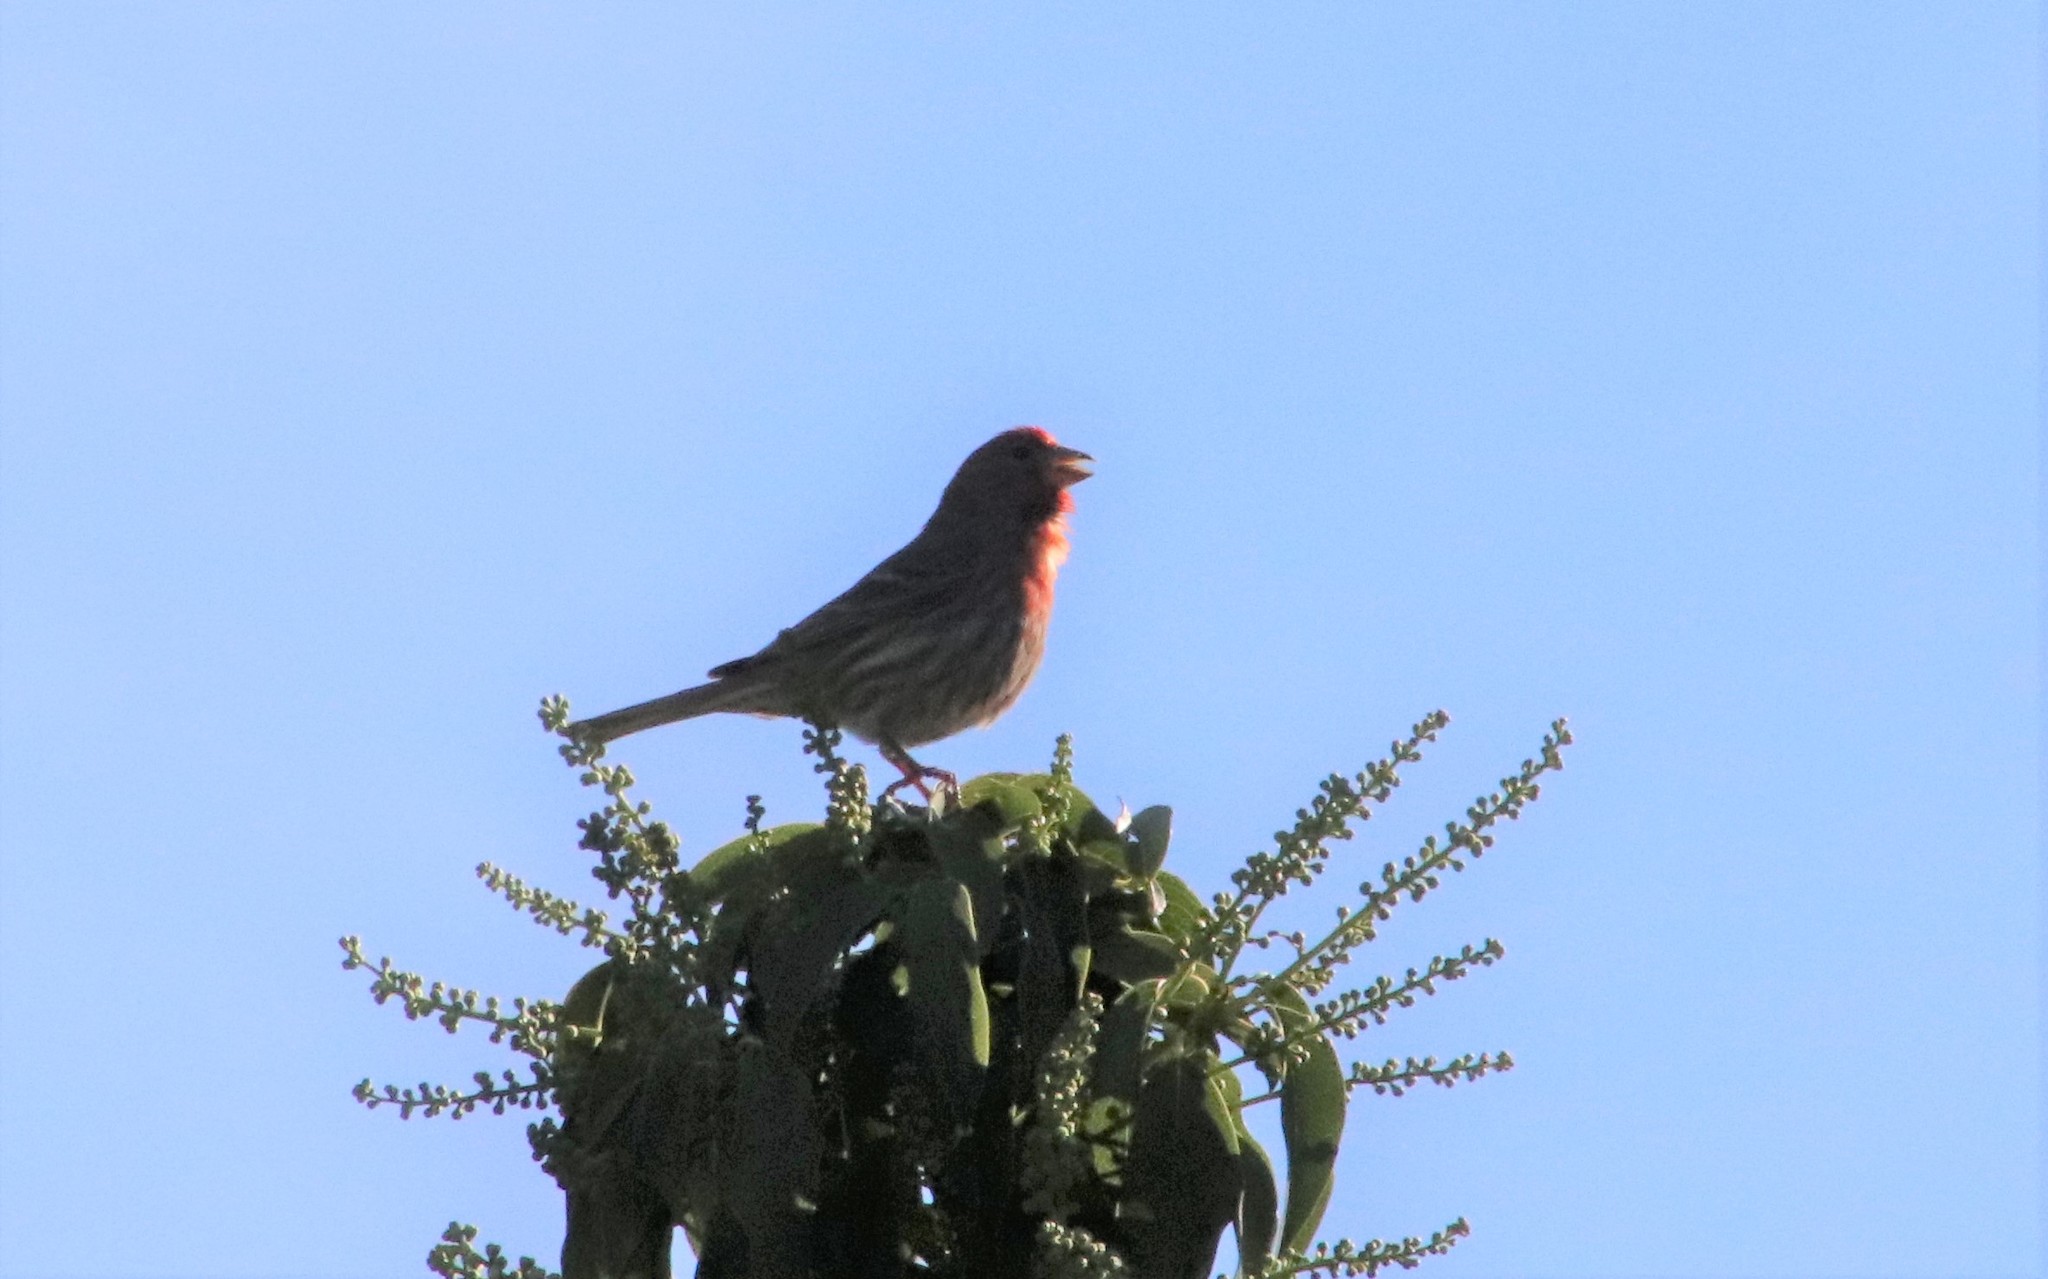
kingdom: Animalia
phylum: Chordata
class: Aves
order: Passeriformes
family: Fringillidae
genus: Haemorhous
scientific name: Haemorhous mexicanus
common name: House finch
